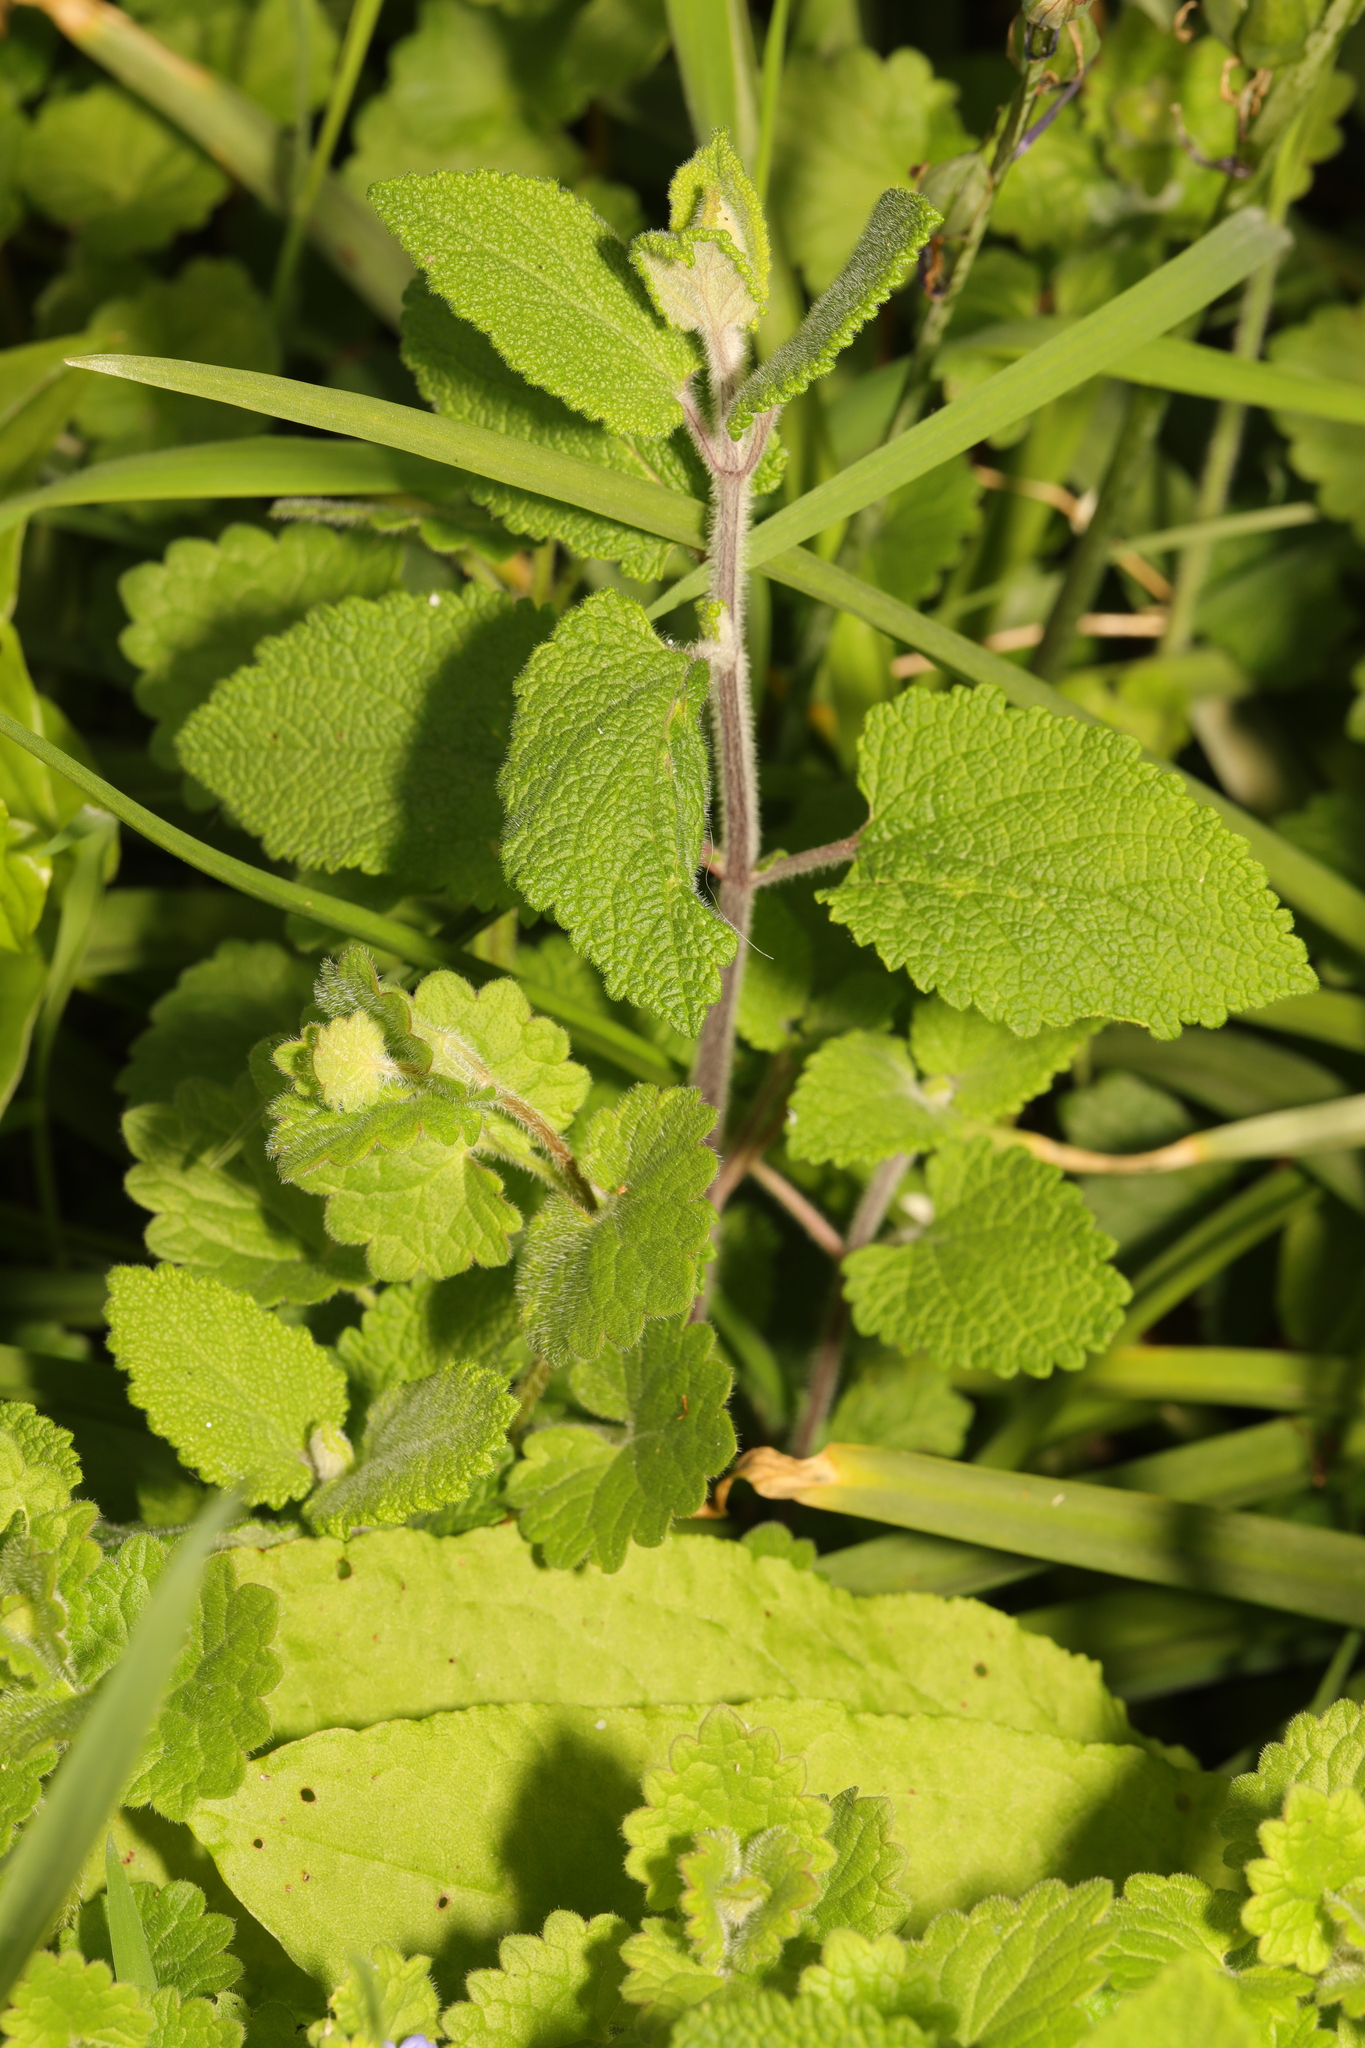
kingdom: Plantae
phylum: Tracheophyta
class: Magnoliopsida
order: Lamiales
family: Lamiaceae
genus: Teucrium
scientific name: Teucrium scorodonia
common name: Woodland germander
